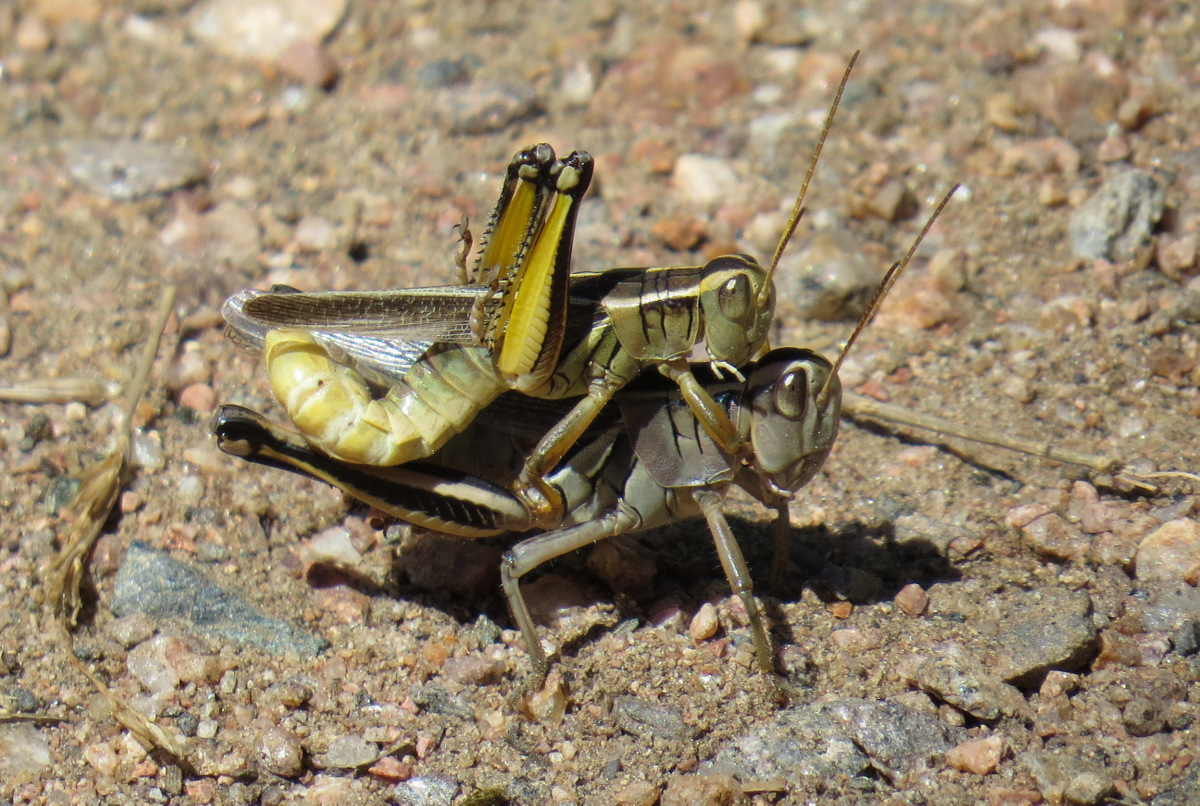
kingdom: Animalia
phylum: Arthropoda
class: Insecta
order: Orthoptera
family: Acrididae
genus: Melanoplus
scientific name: Melanoplus bivittatus
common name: Two-striped grasshopper
